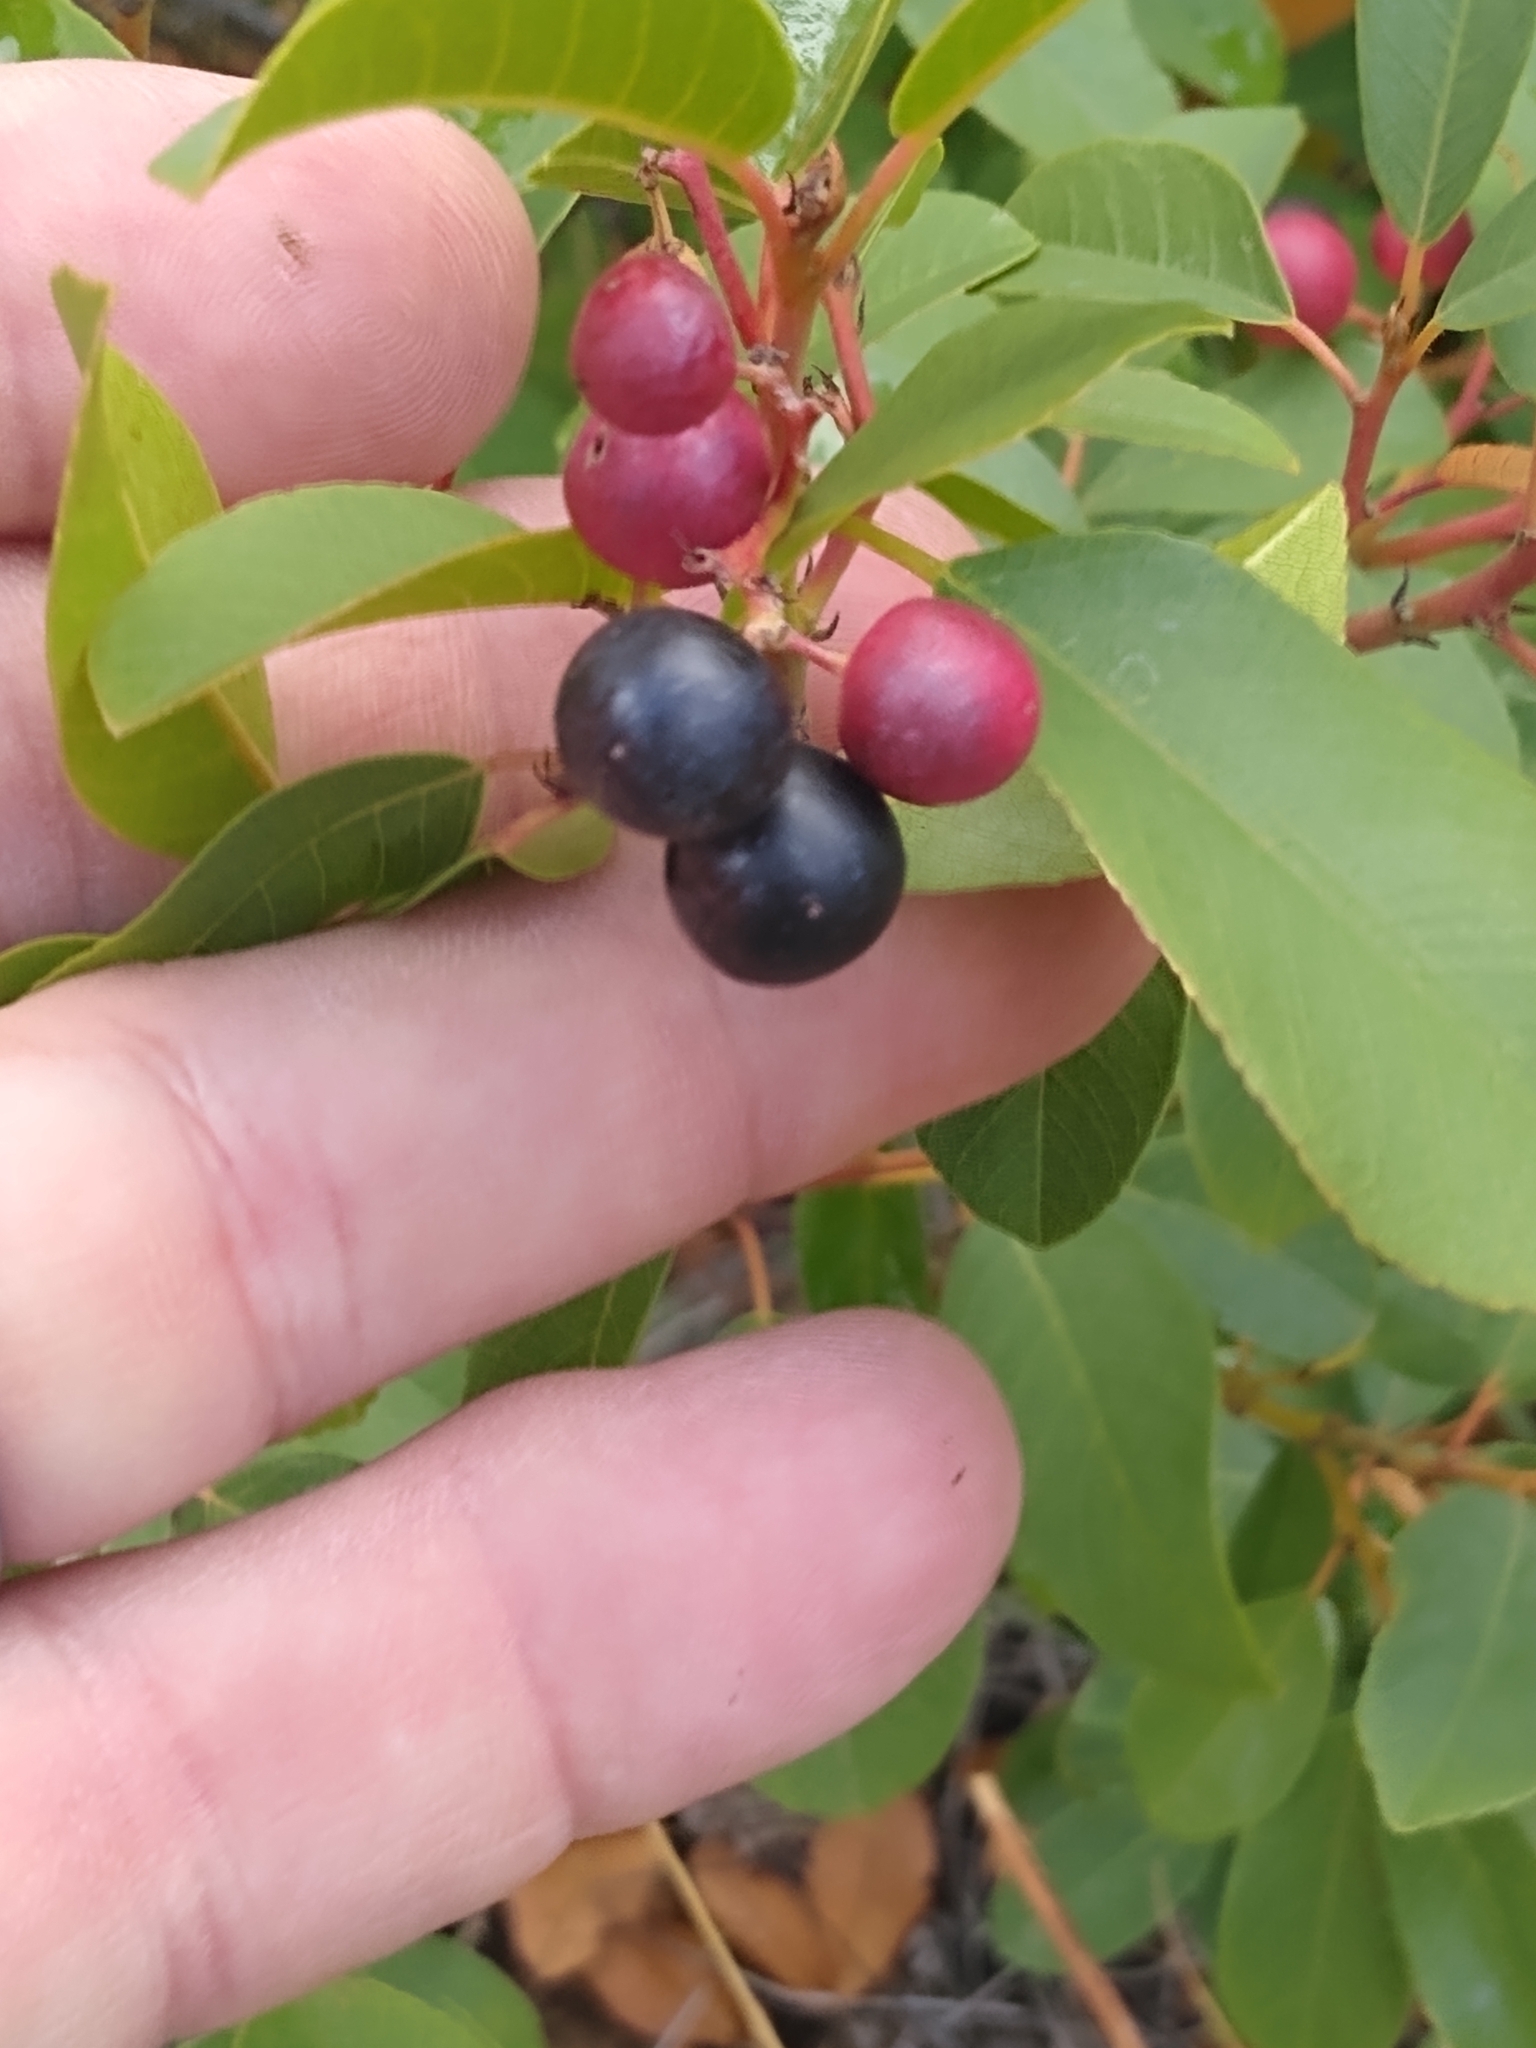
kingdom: Plantae
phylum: Tracheophyta
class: Magnoliopsida
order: Rosales
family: Rhamnaceae
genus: Frangula
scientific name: Frangula californica
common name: California buckthorn
